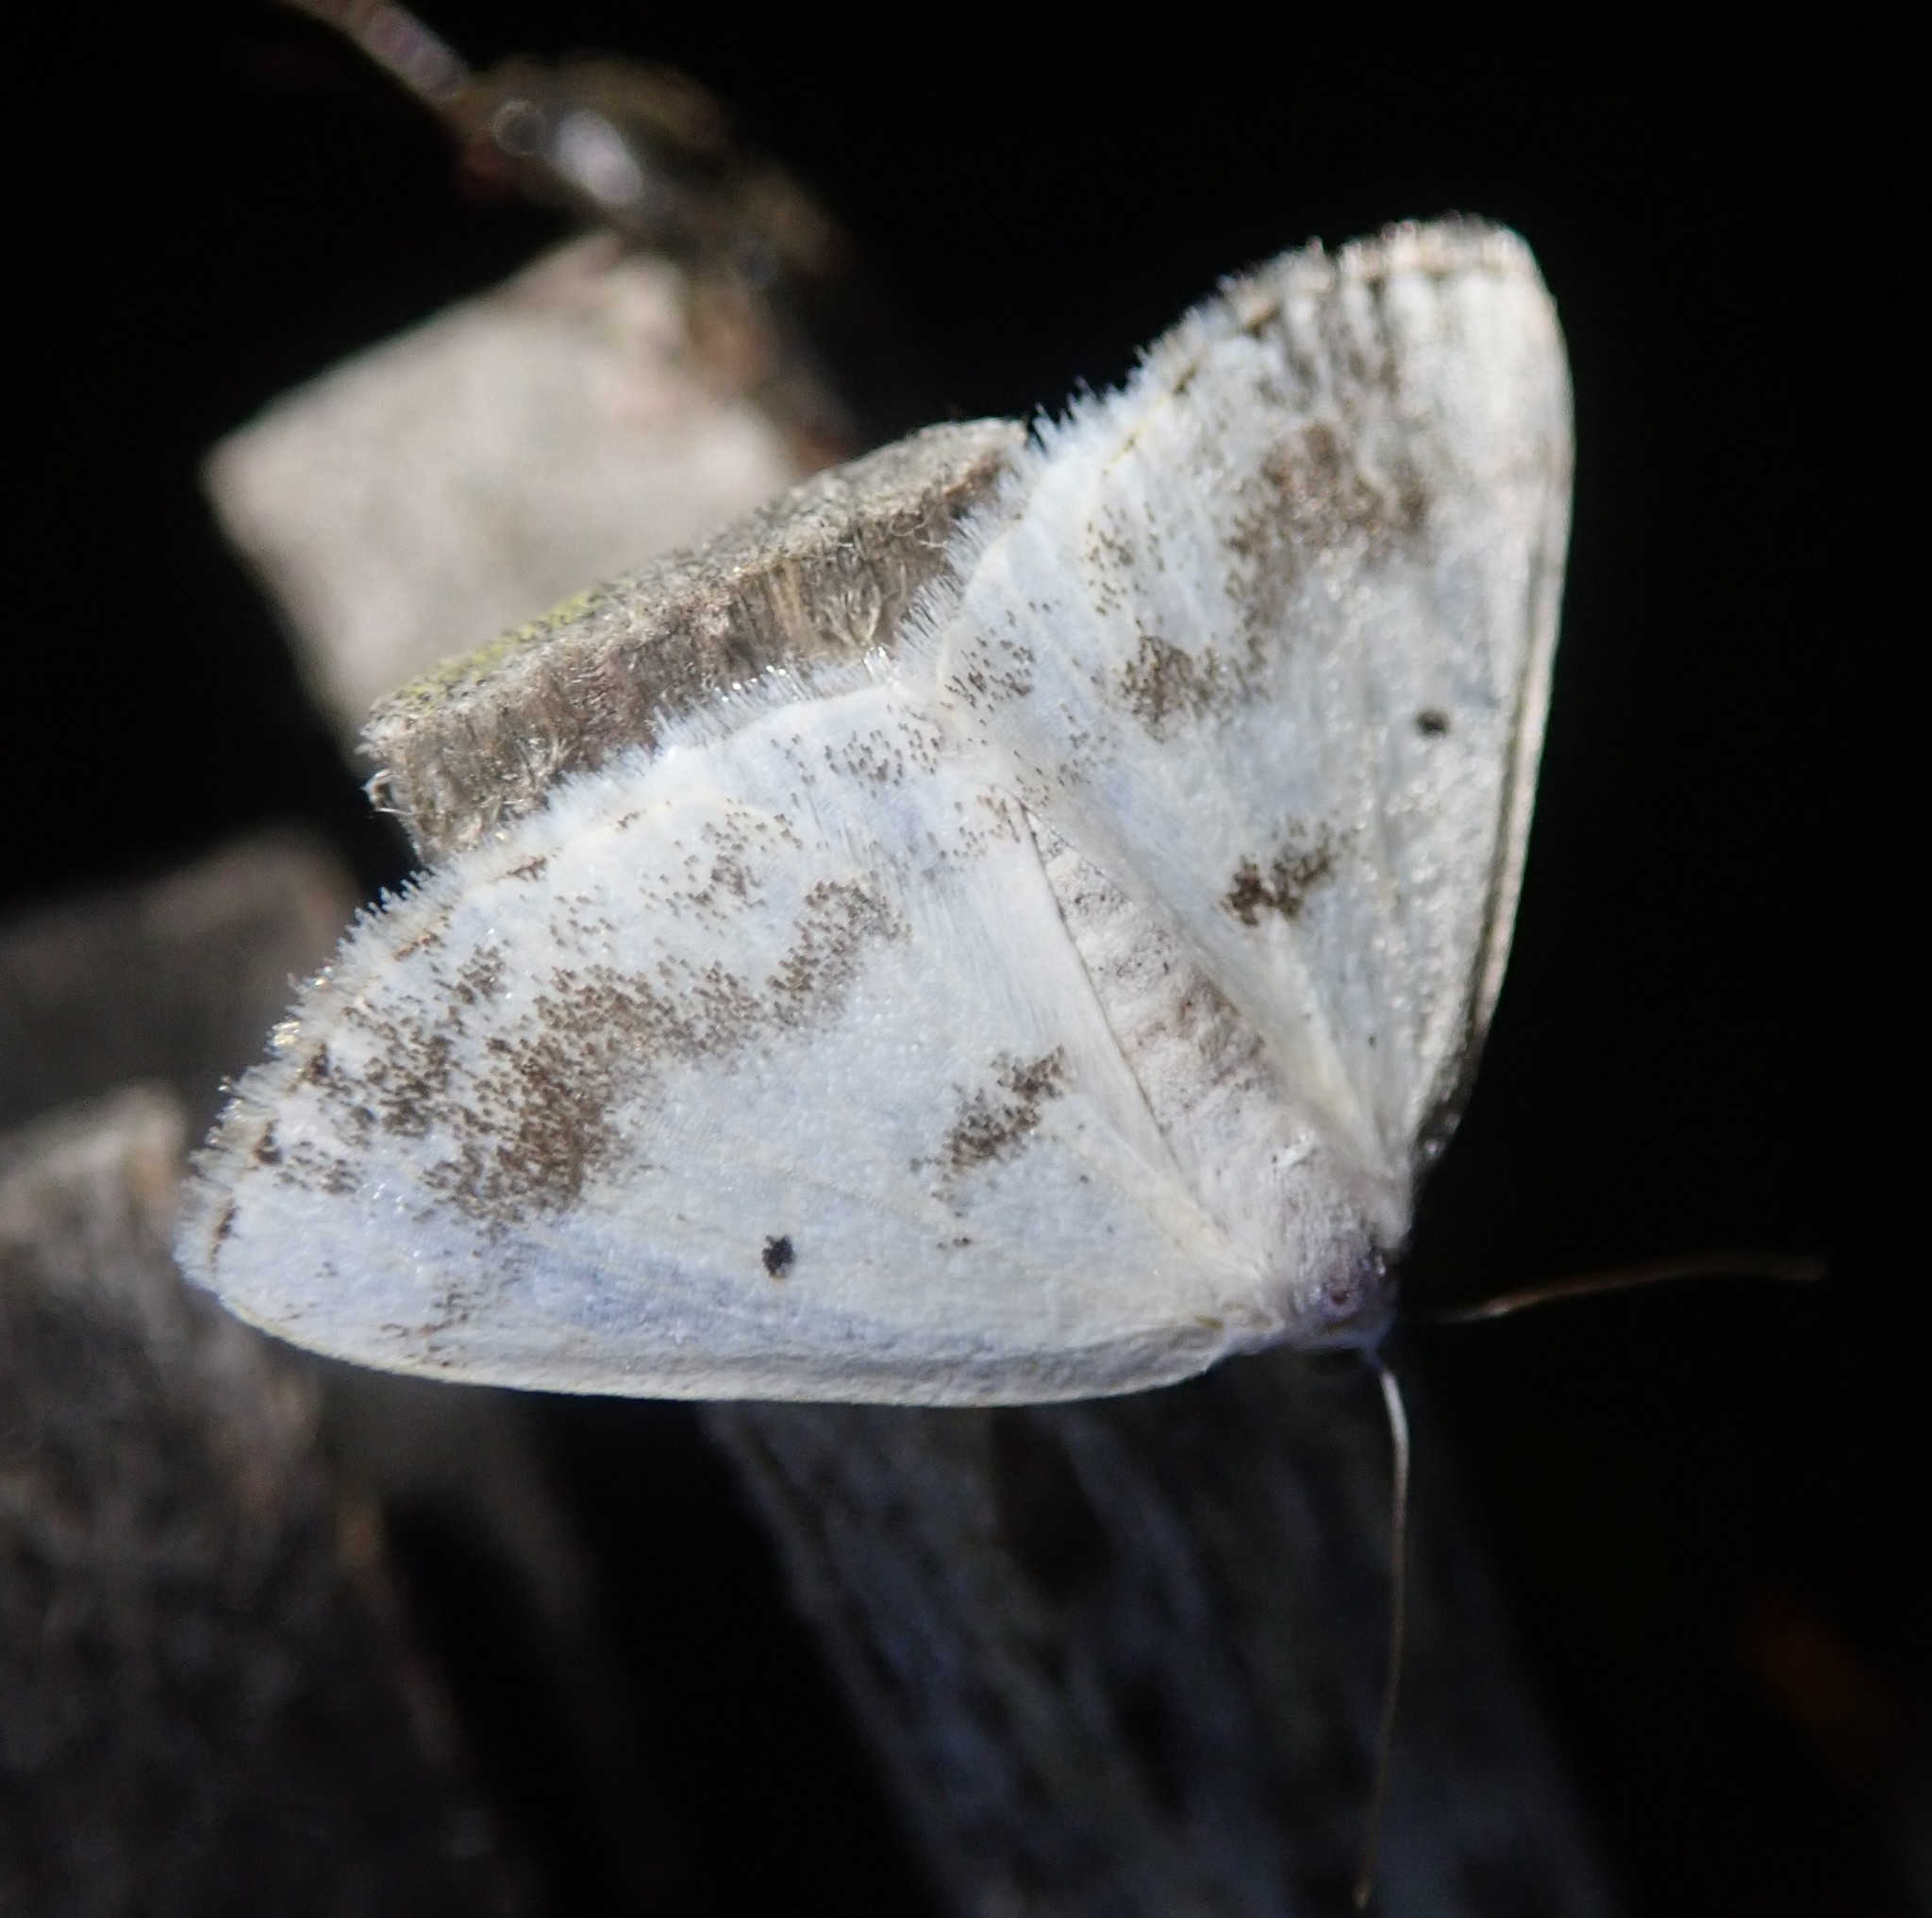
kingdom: Animalia
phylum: Arthropoda
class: Insecta
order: Lepidoptera
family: Geometridae
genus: Lomographa
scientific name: Lomographa temerata
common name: Clouded silver
